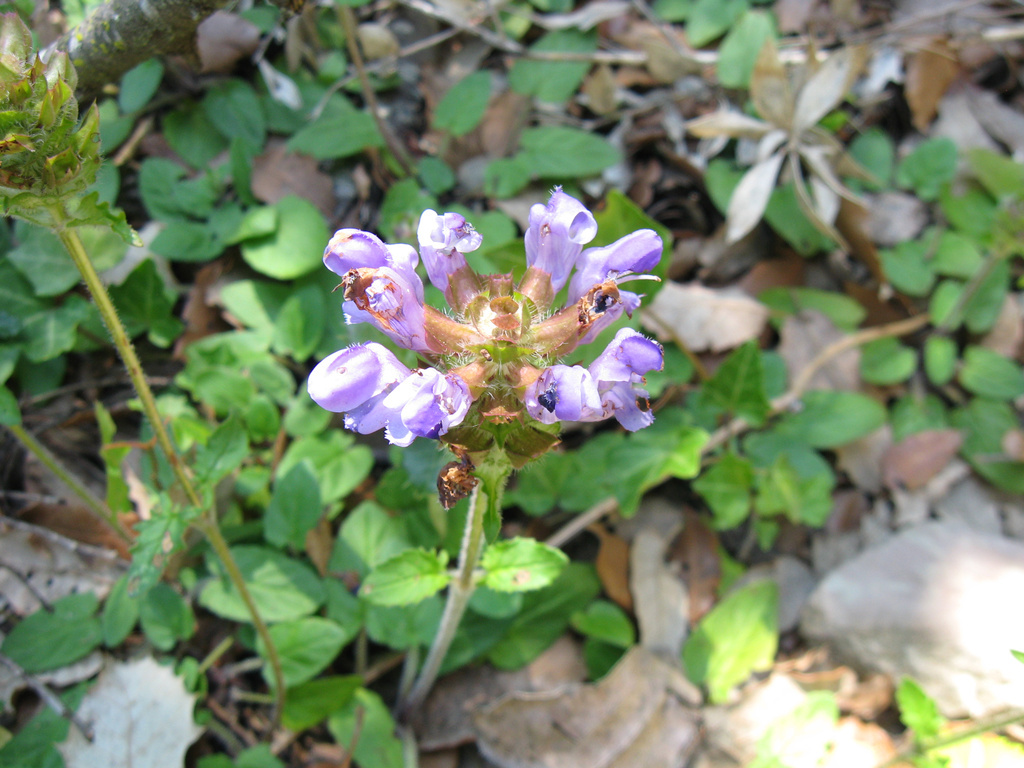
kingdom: Plantae
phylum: Tracheophyta
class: Magnoliopsida
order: Lamiales
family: Lamiaceae
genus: Prunella
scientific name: Prunella grandiflora
